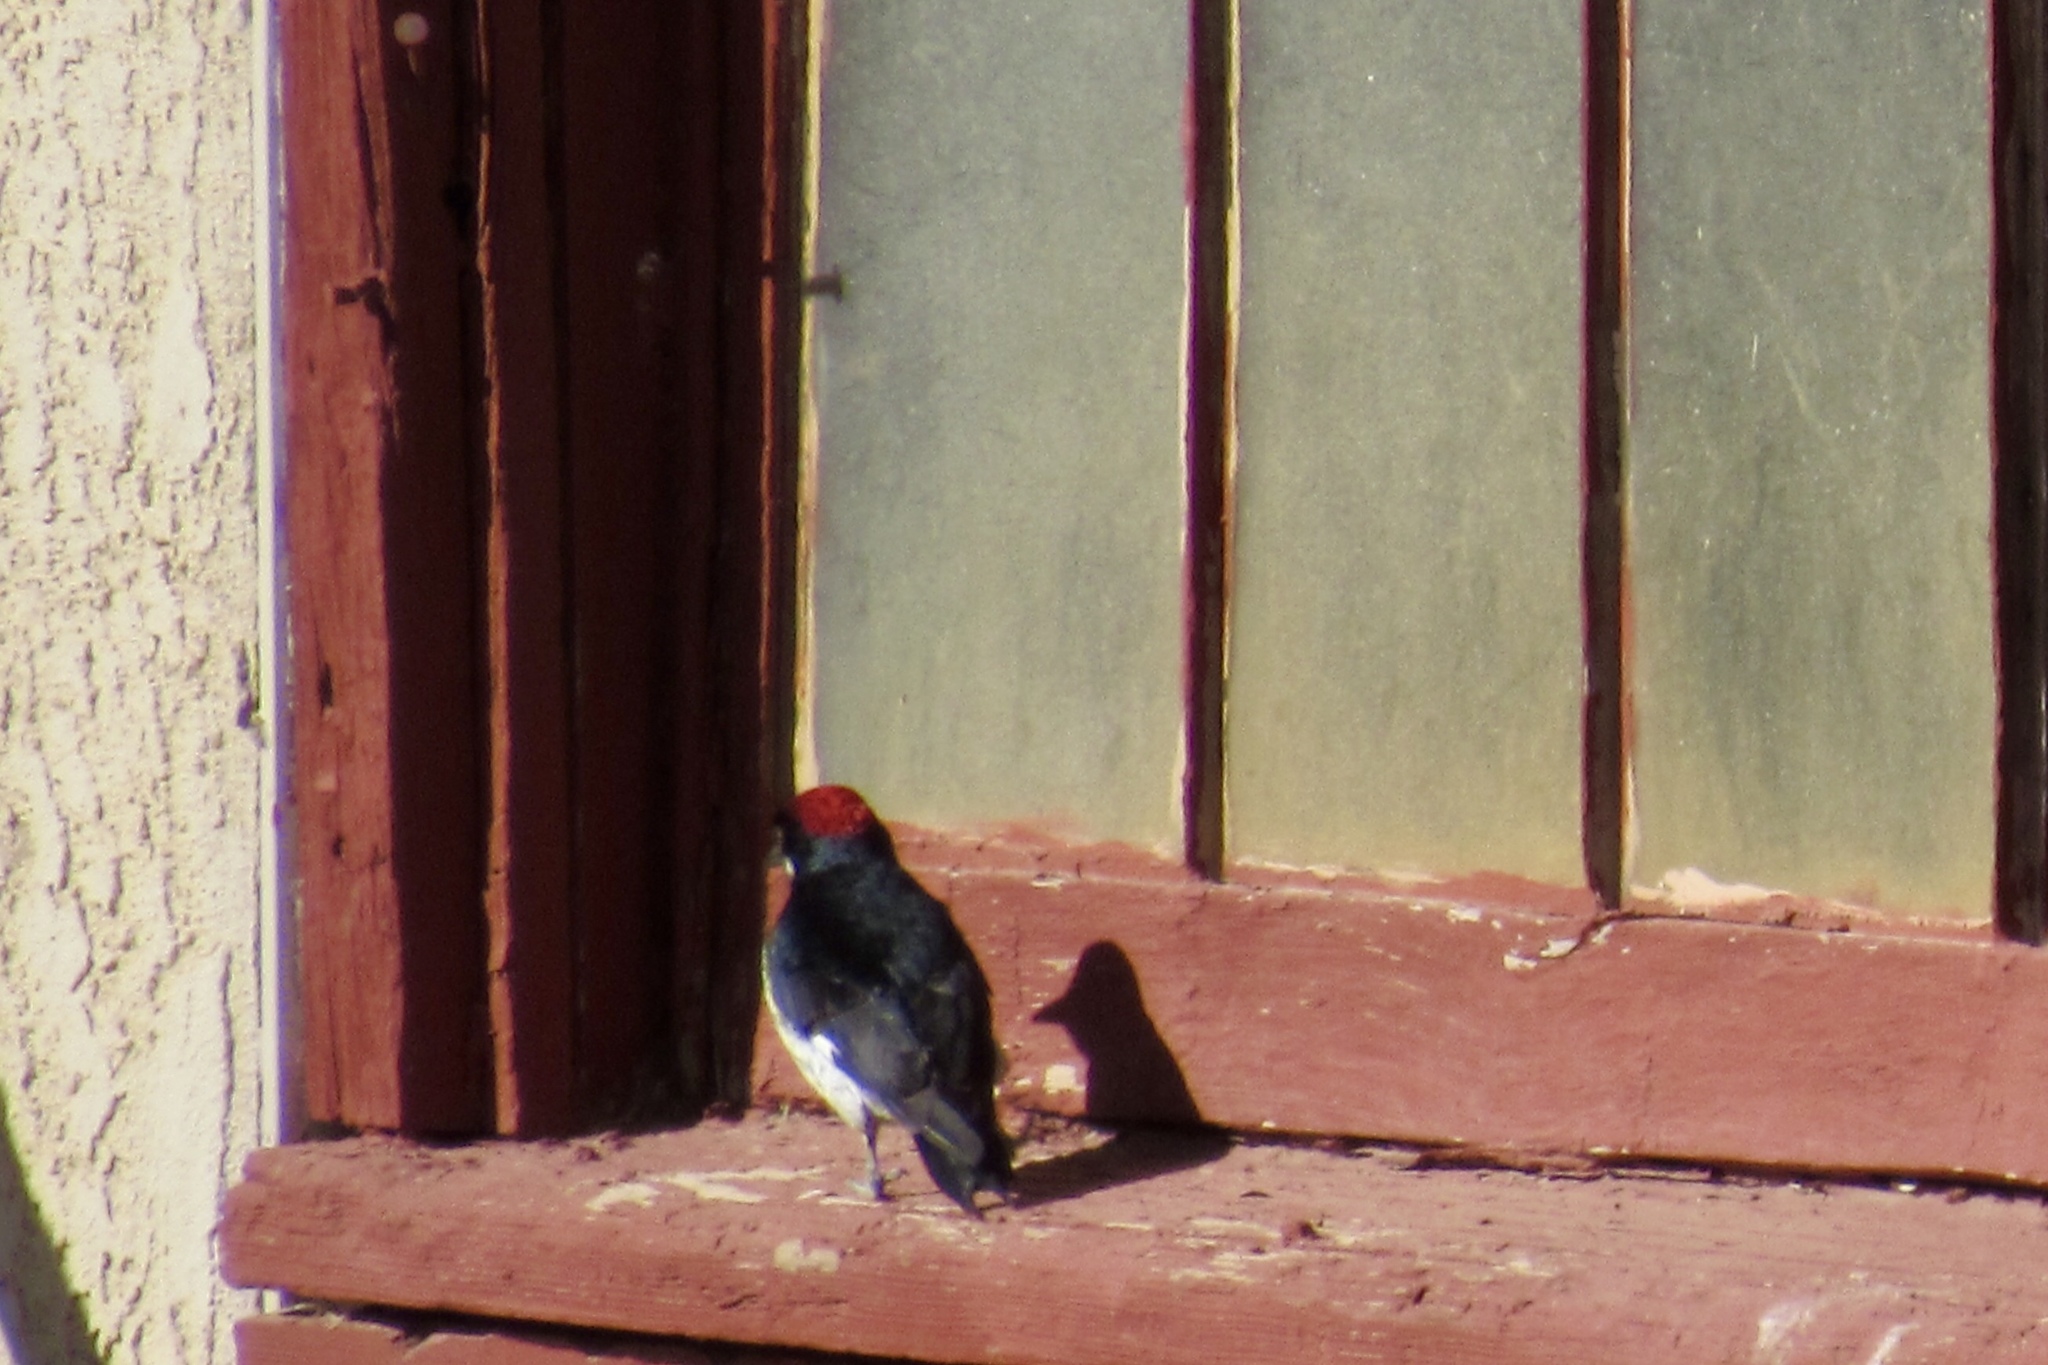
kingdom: Animalia
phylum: Chordata
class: Aves
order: Piciformes
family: Picidae
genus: Melanerpes
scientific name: Melanerpes formicivorus
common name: Acorn woodpecker
